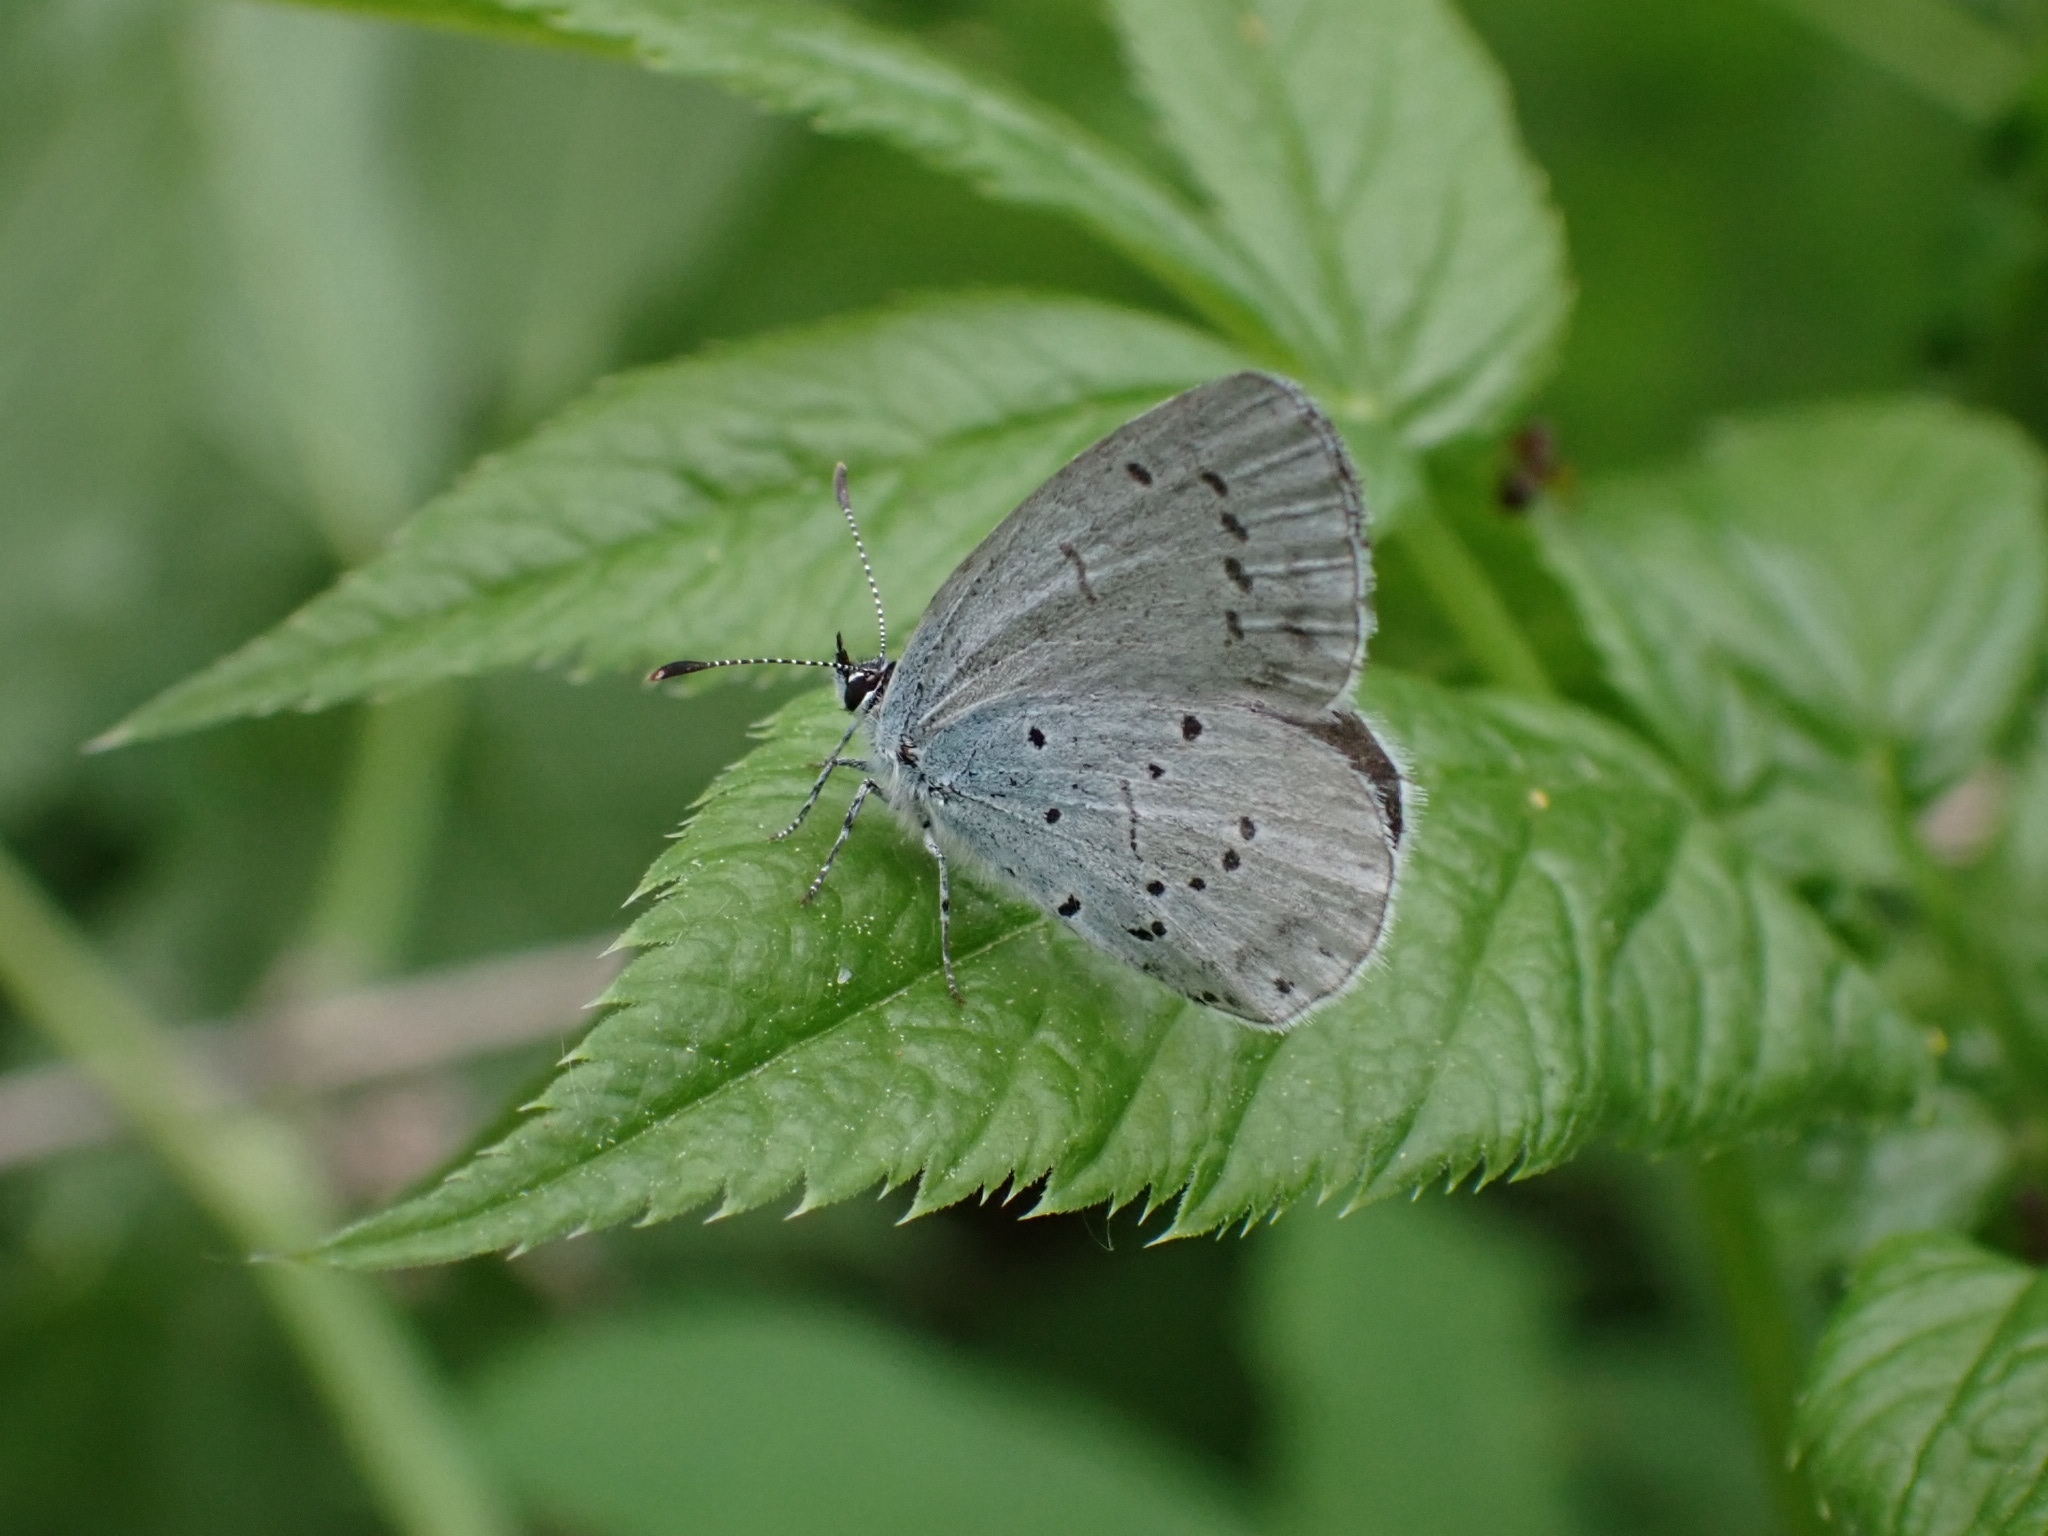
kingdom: Animalia
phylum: Arthropoda
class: Insecta
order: Lepidoptera
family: Lycaenidae
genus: Celastrina
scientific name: Celastrina argiolus
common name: Holly blue
